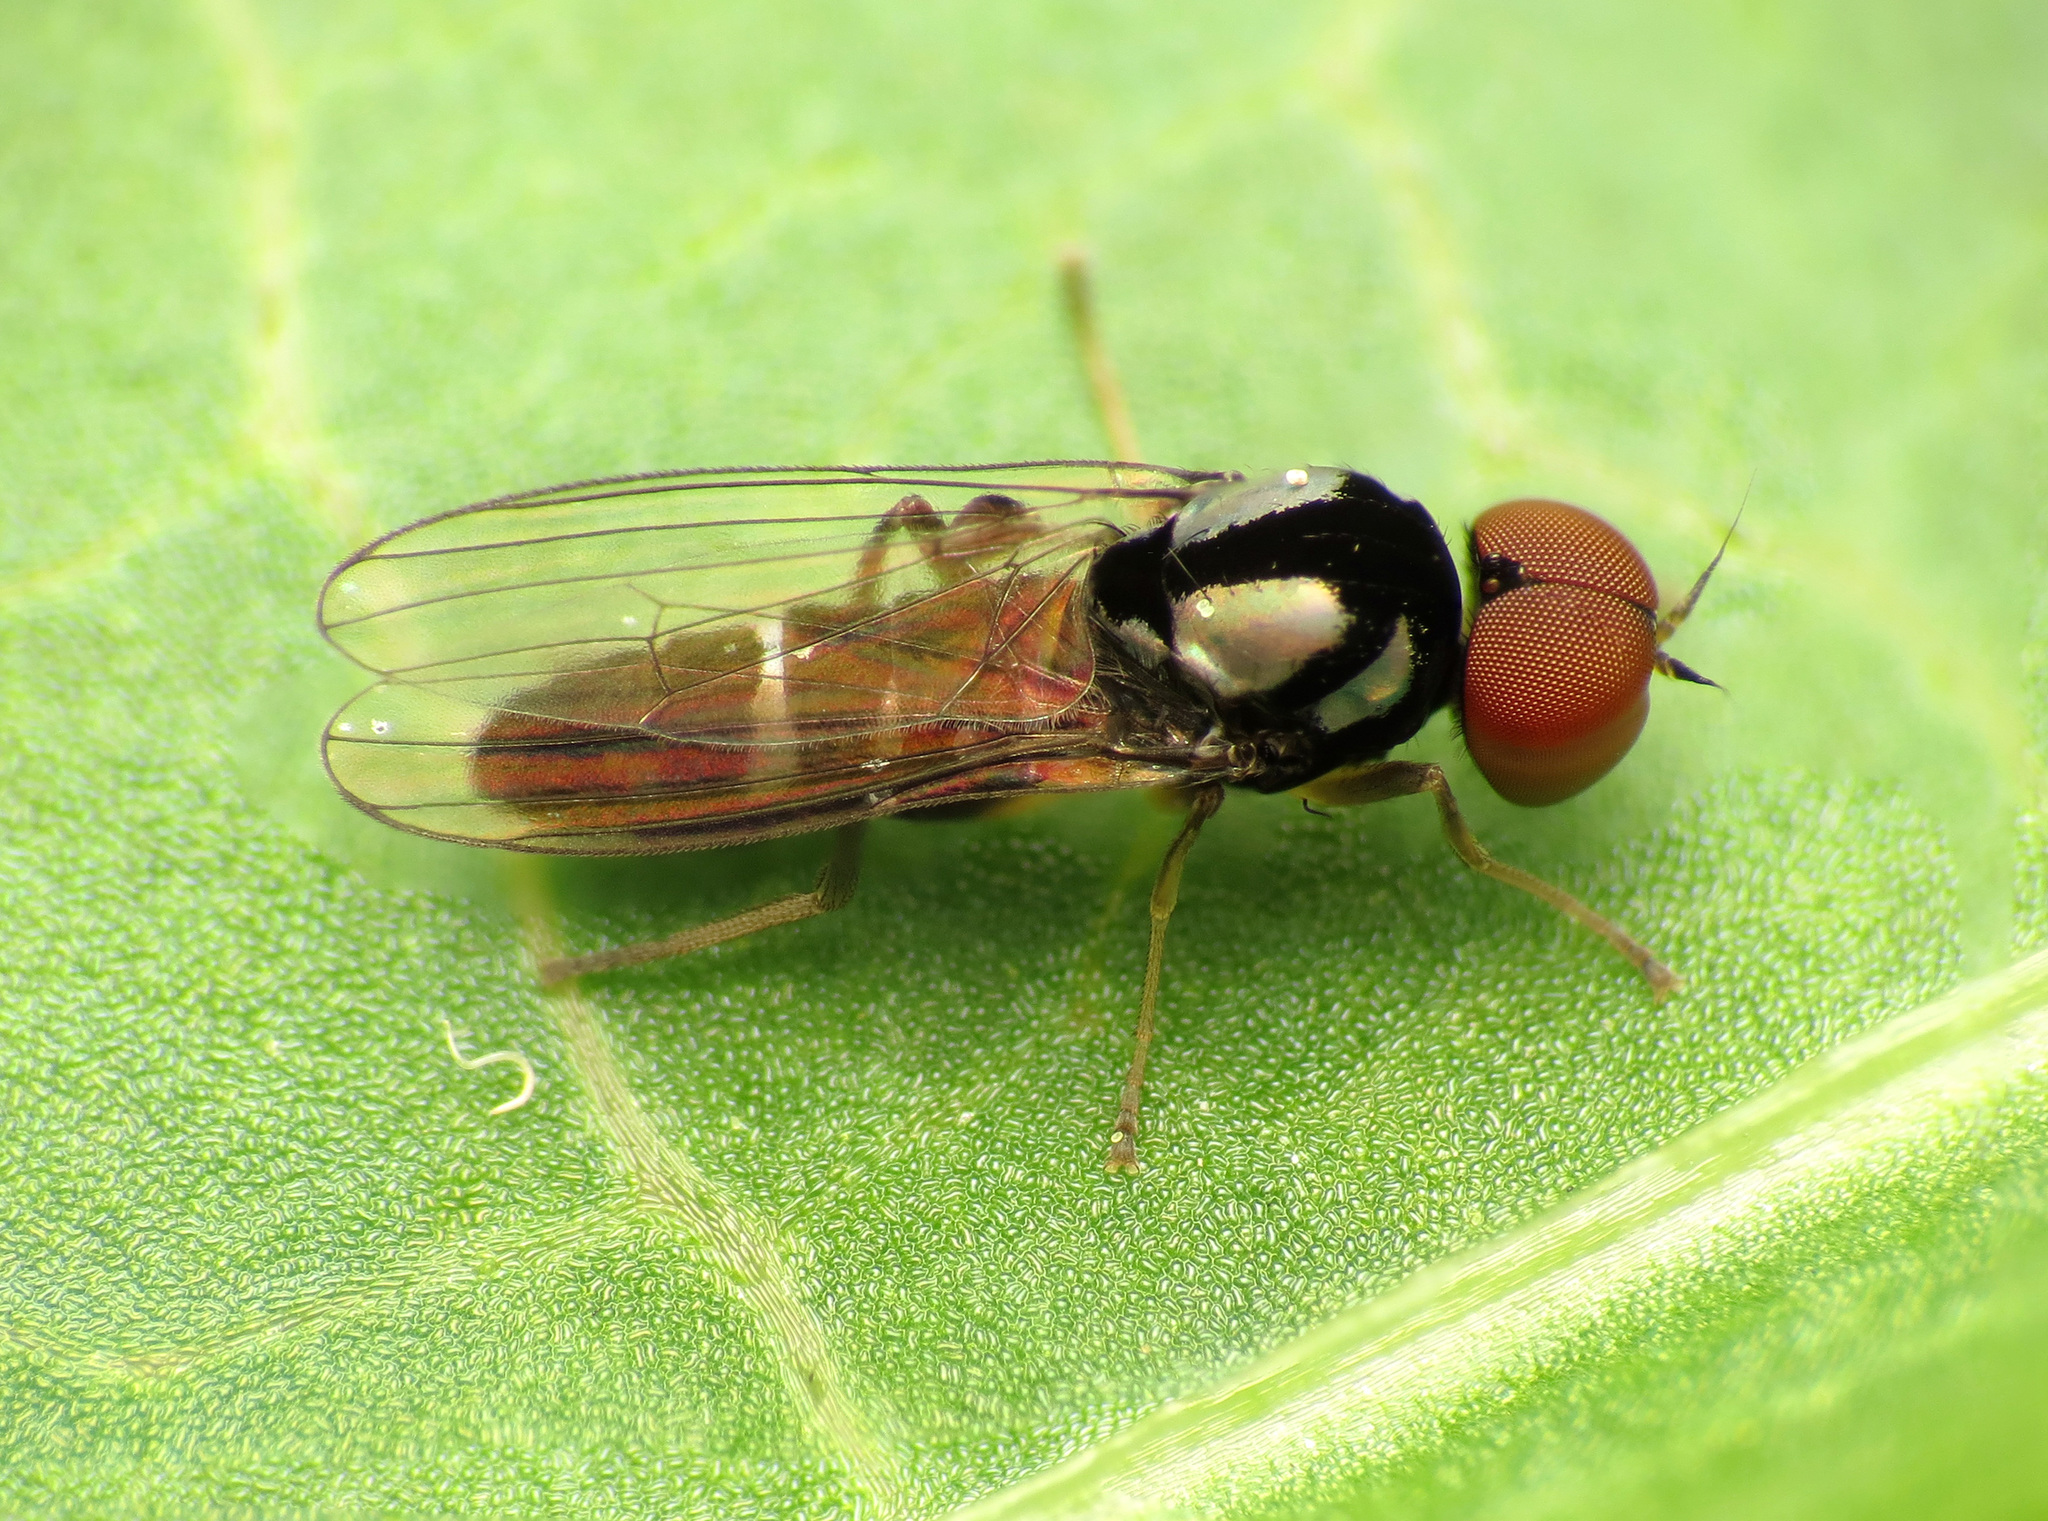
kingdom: Animalia
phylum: Arthropoda
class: Insecta
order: Diptera
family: Platypezidae
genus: Bertamyia
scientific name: Bertamyia notata
